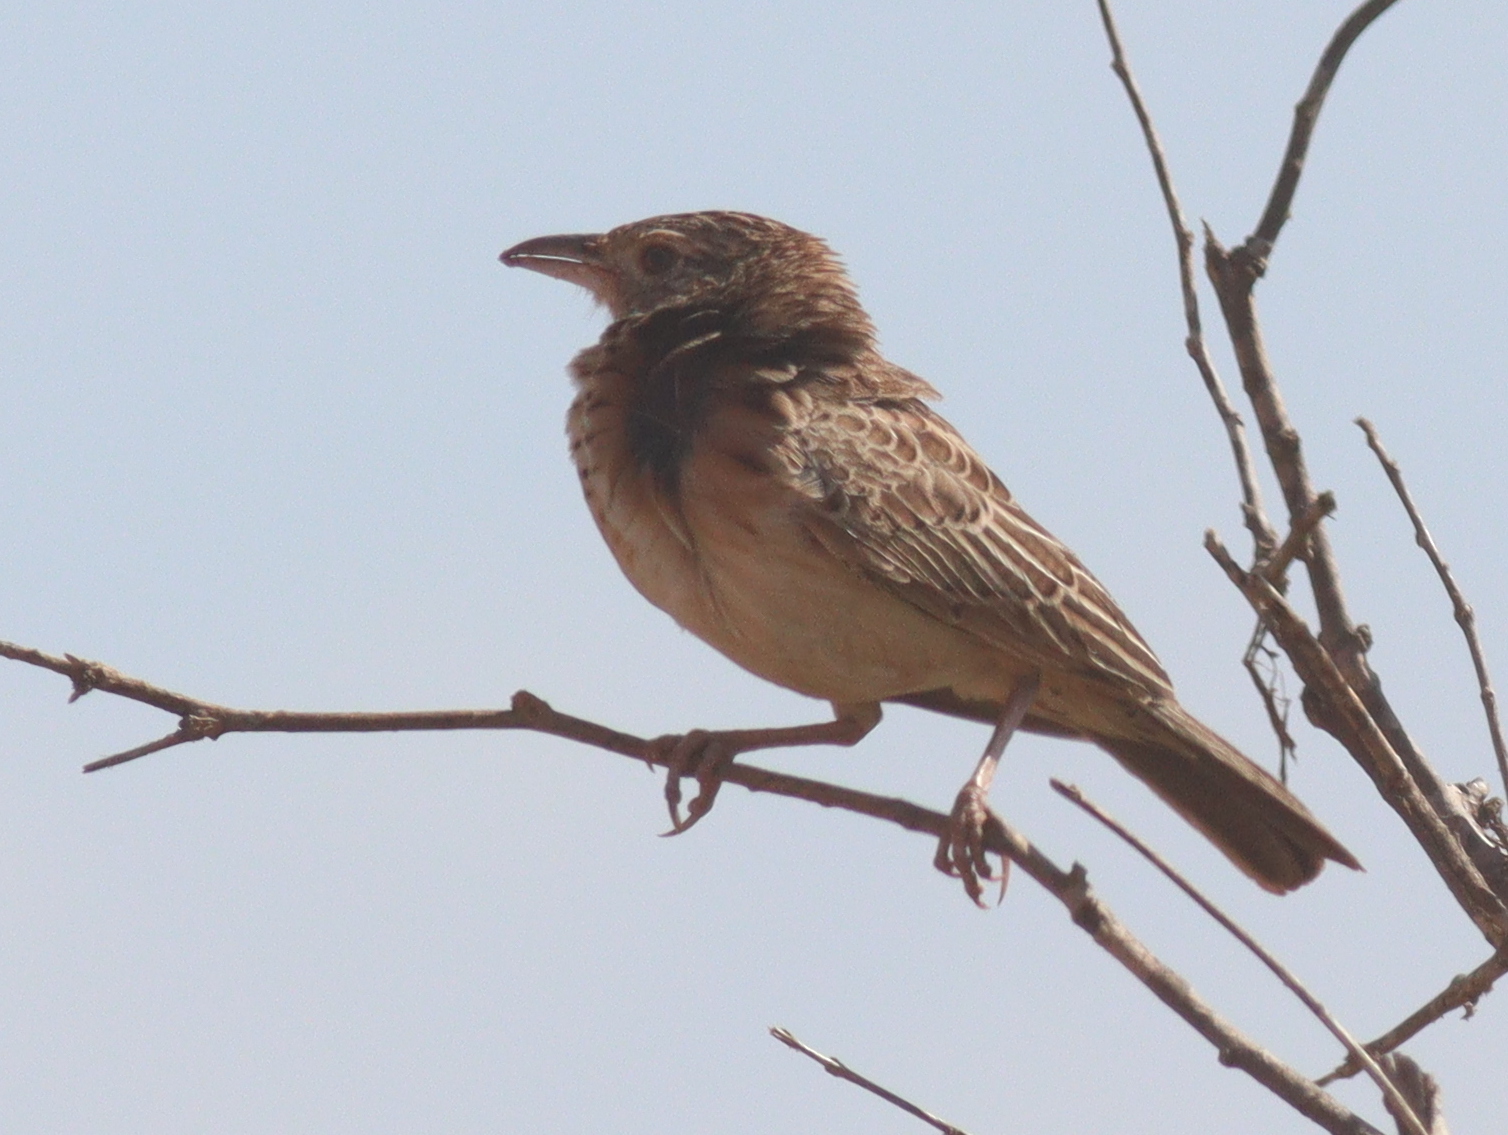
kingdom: Animalia
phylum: Chordata
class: Aves
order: Passeriformes
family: Alaudidae
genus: Mirafra
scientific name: Mirafra hypermetra
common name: Red-winged lark
